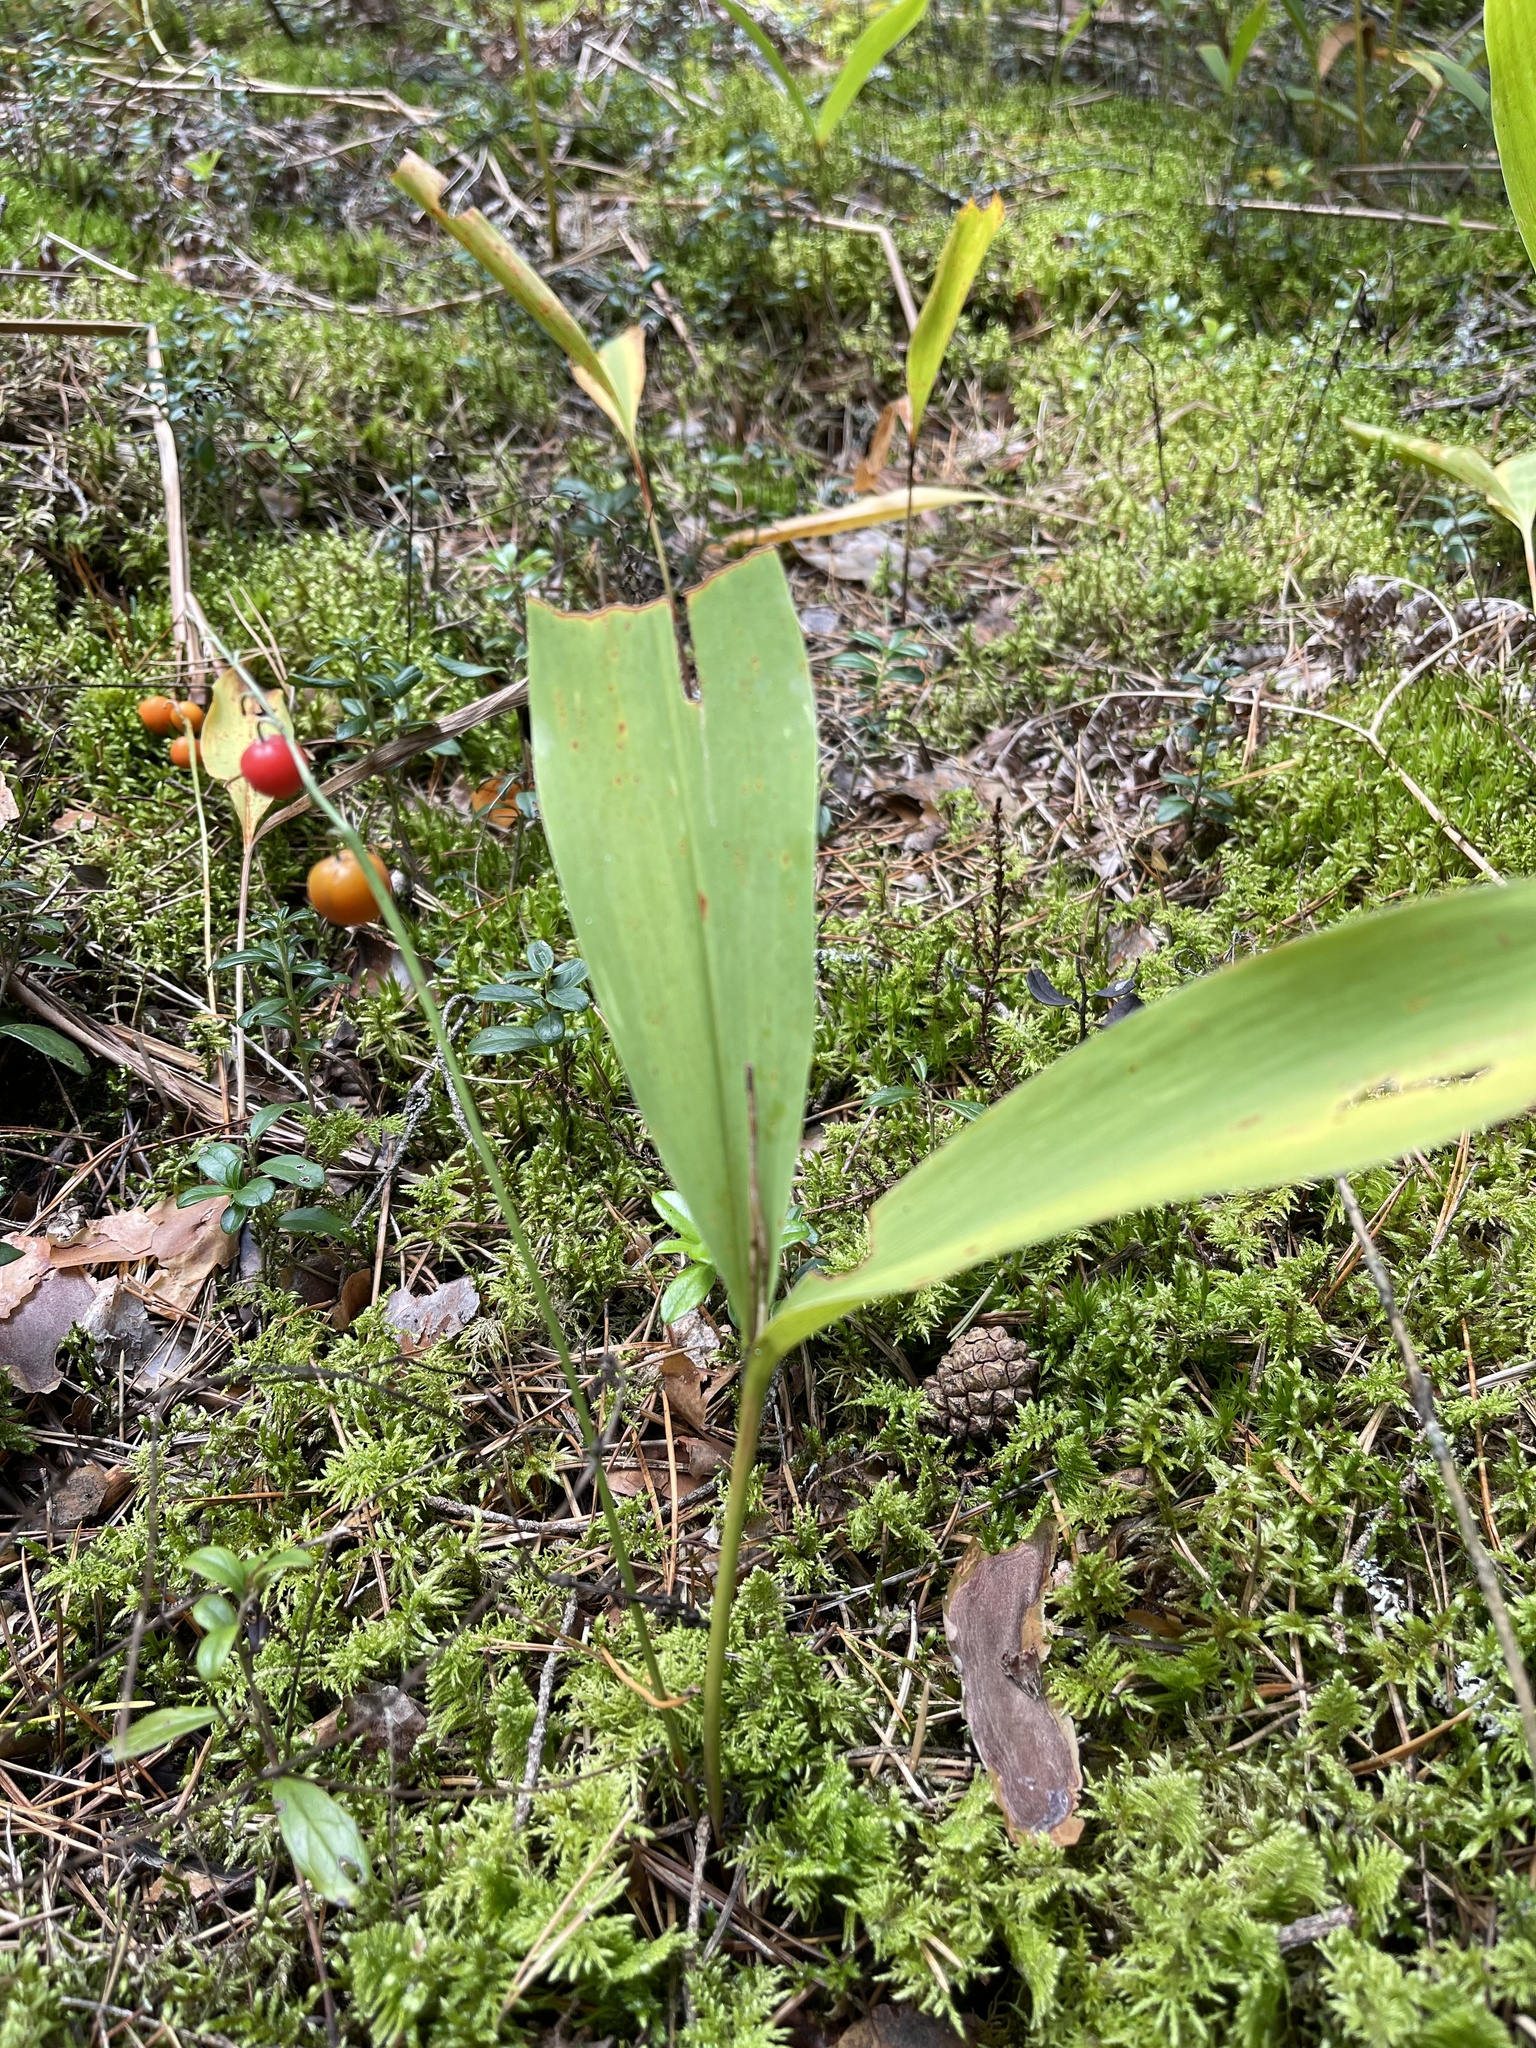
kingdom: Plantae
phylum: Tracheophyta
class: Liliopsida
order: Asparagales
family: Asparagaceae
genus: Convallaria
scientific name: Convallaria majalis
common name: Lily-of-the-valley
